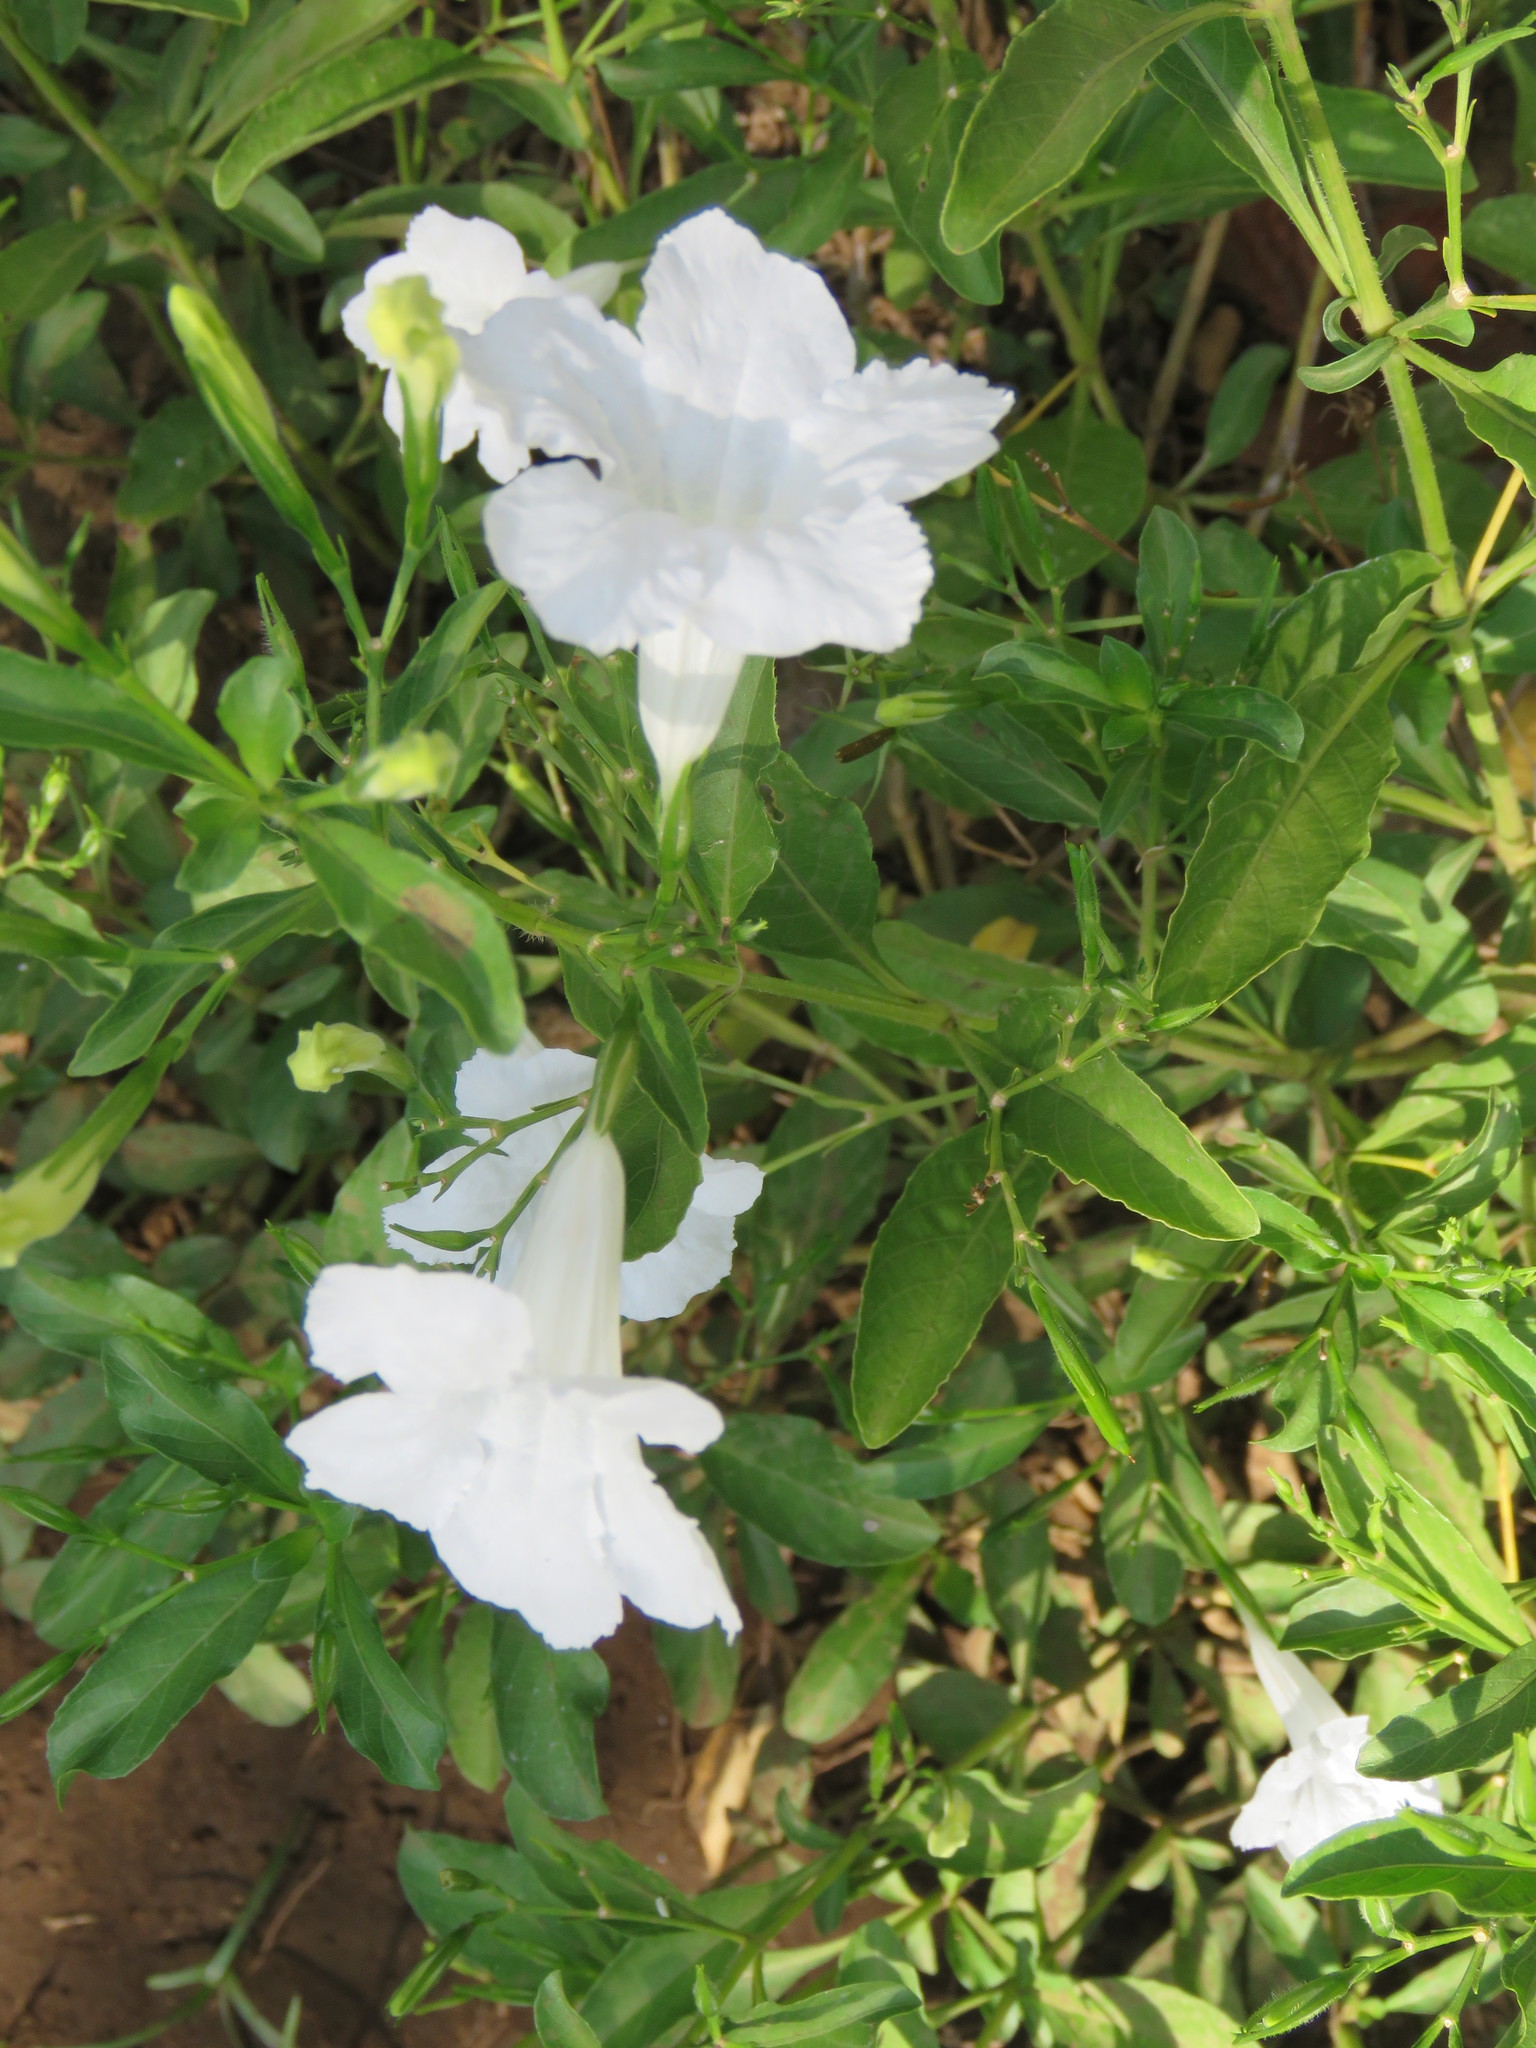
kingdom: Plantae
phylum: Tracheophyta
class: Magnoliopsida
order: Lamiales
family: Acanthaceae
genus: Ruellia
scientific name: Ruellia tuberosa
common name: Devil's bit
